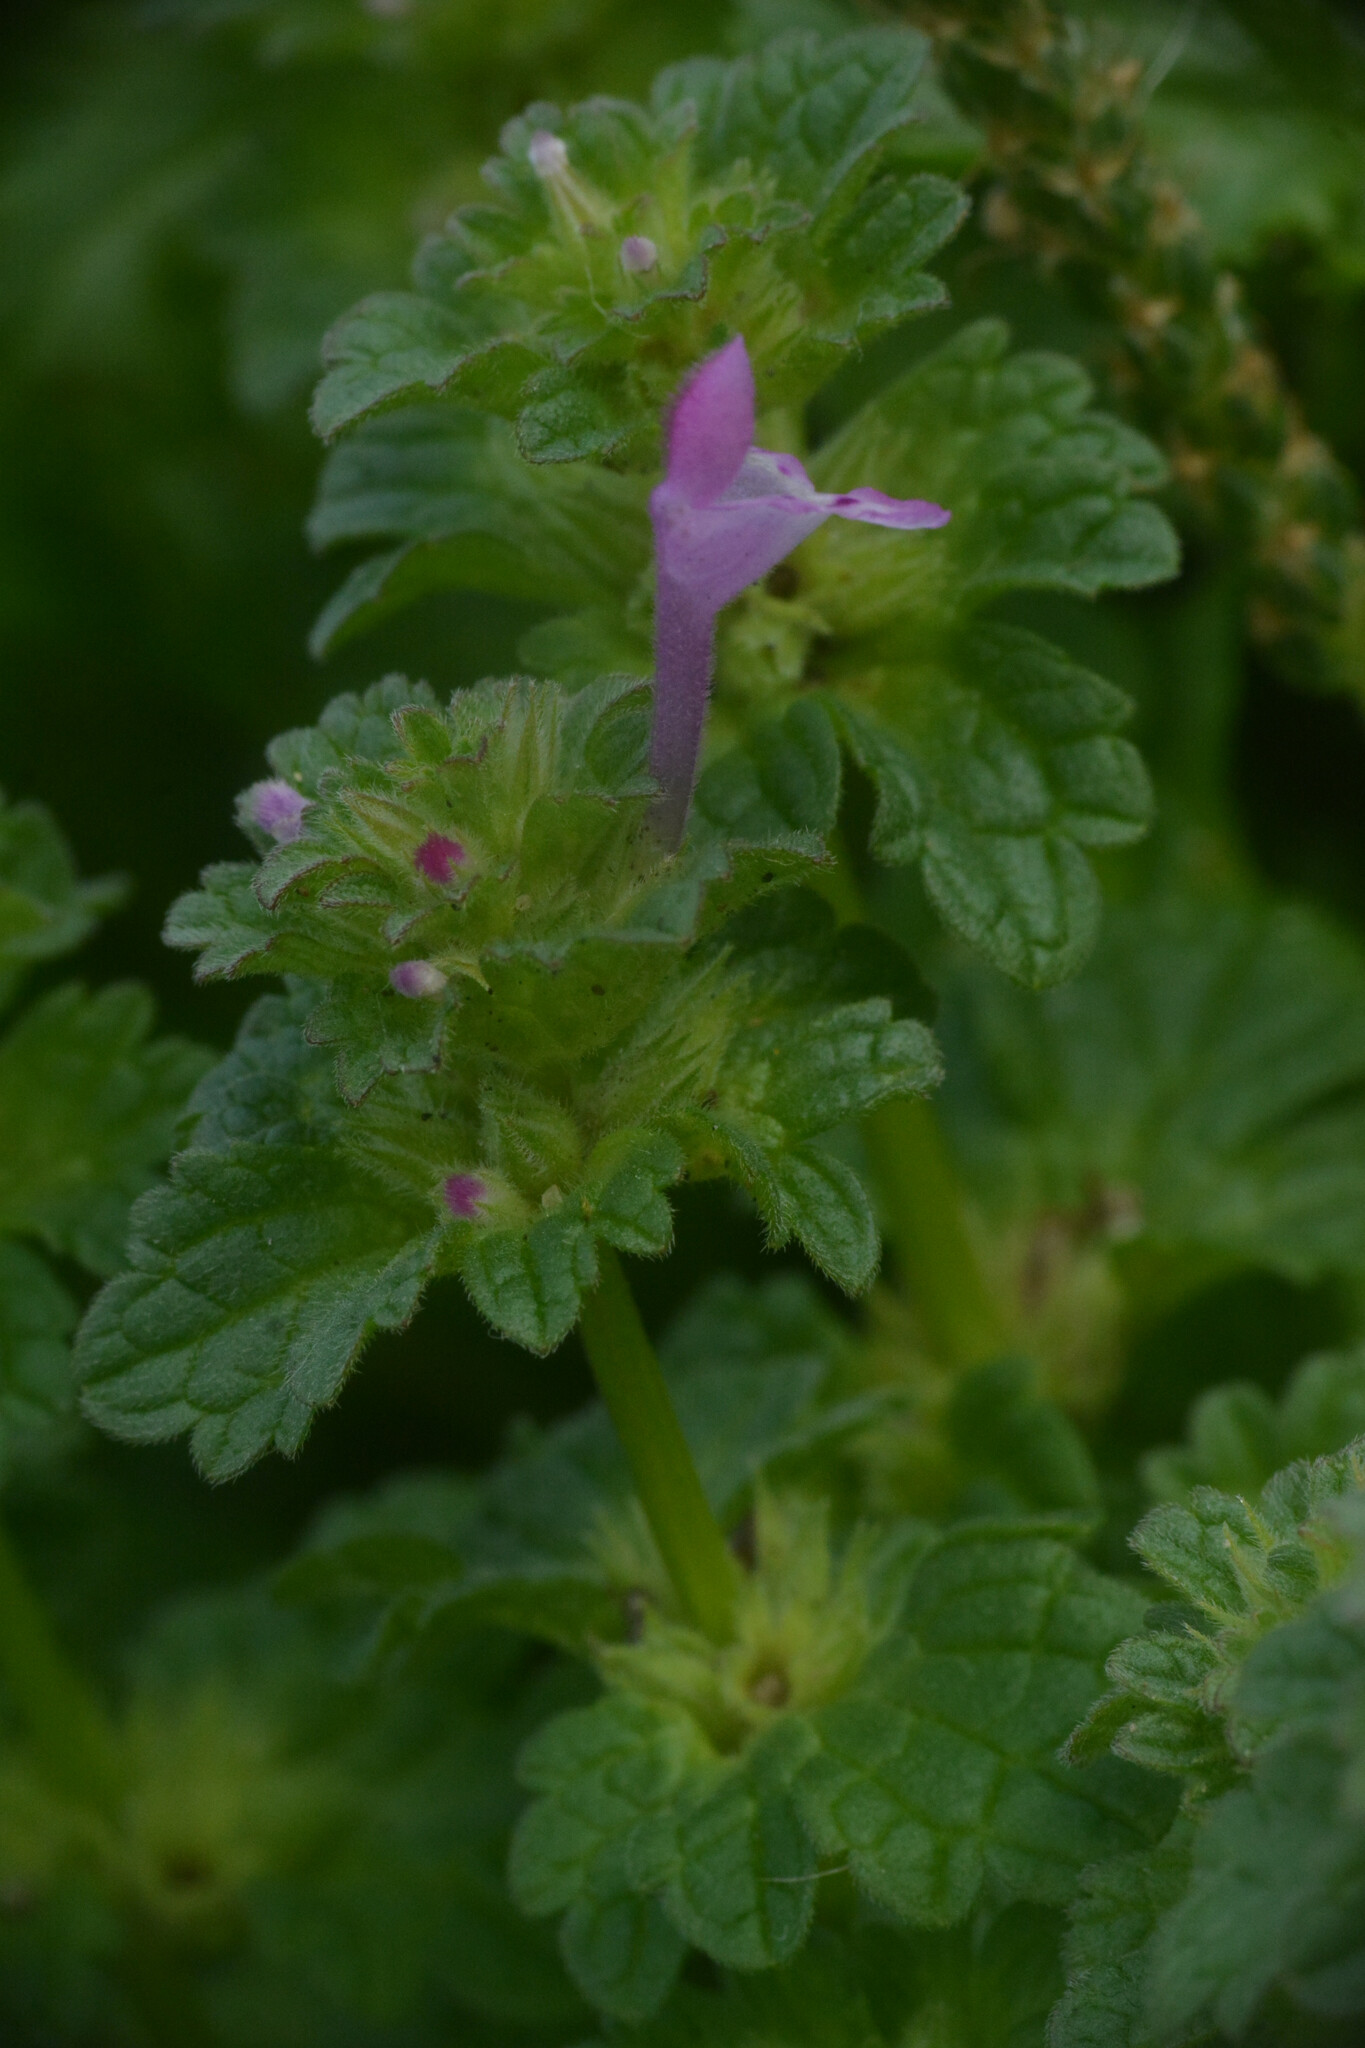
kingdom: Plantae
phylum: Tracheophyta
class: Magnoliopsida
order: Lamiales
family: Lamiaceae
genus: Lamium
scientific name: Lamium amplexicaule
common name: Henbit dead-nettle
